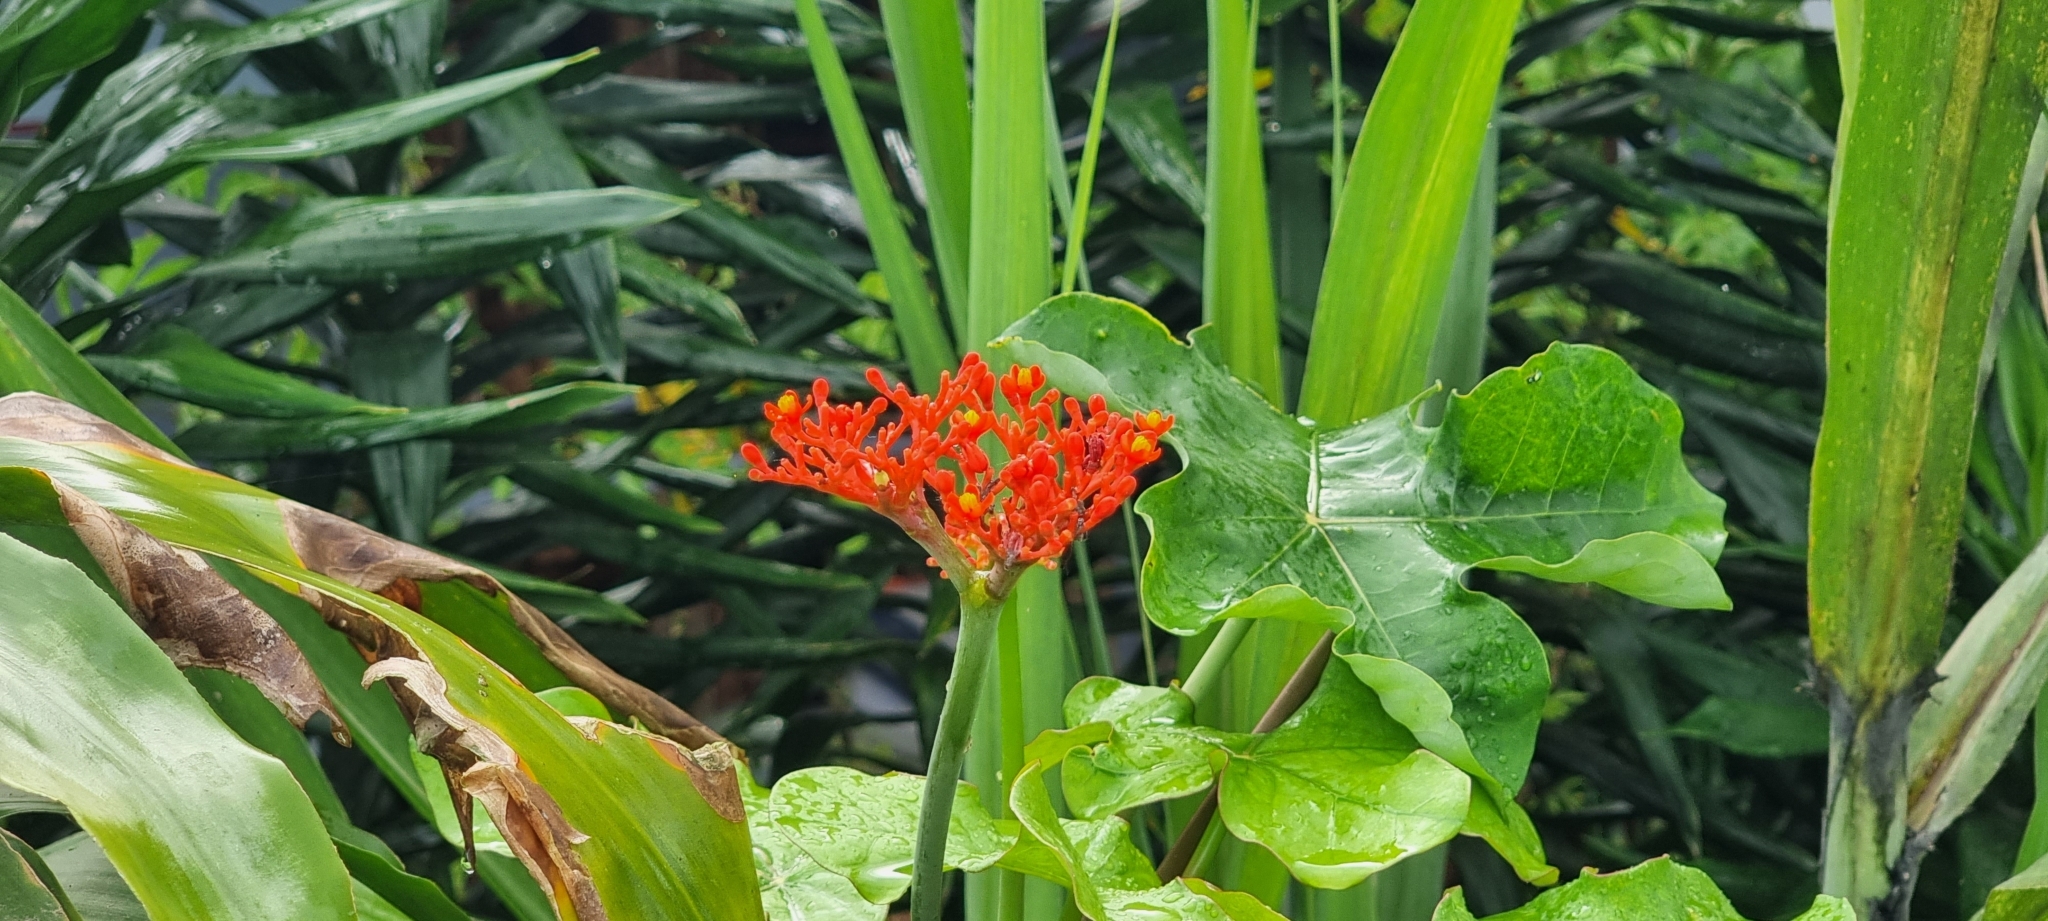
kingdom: Plantae
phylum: Tracheophyta
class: Magnoliopsida
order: Malpighiales
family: Euphorbiaceae
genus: Jatropha
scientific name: Jatropha podagrica
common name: Gout stalk
